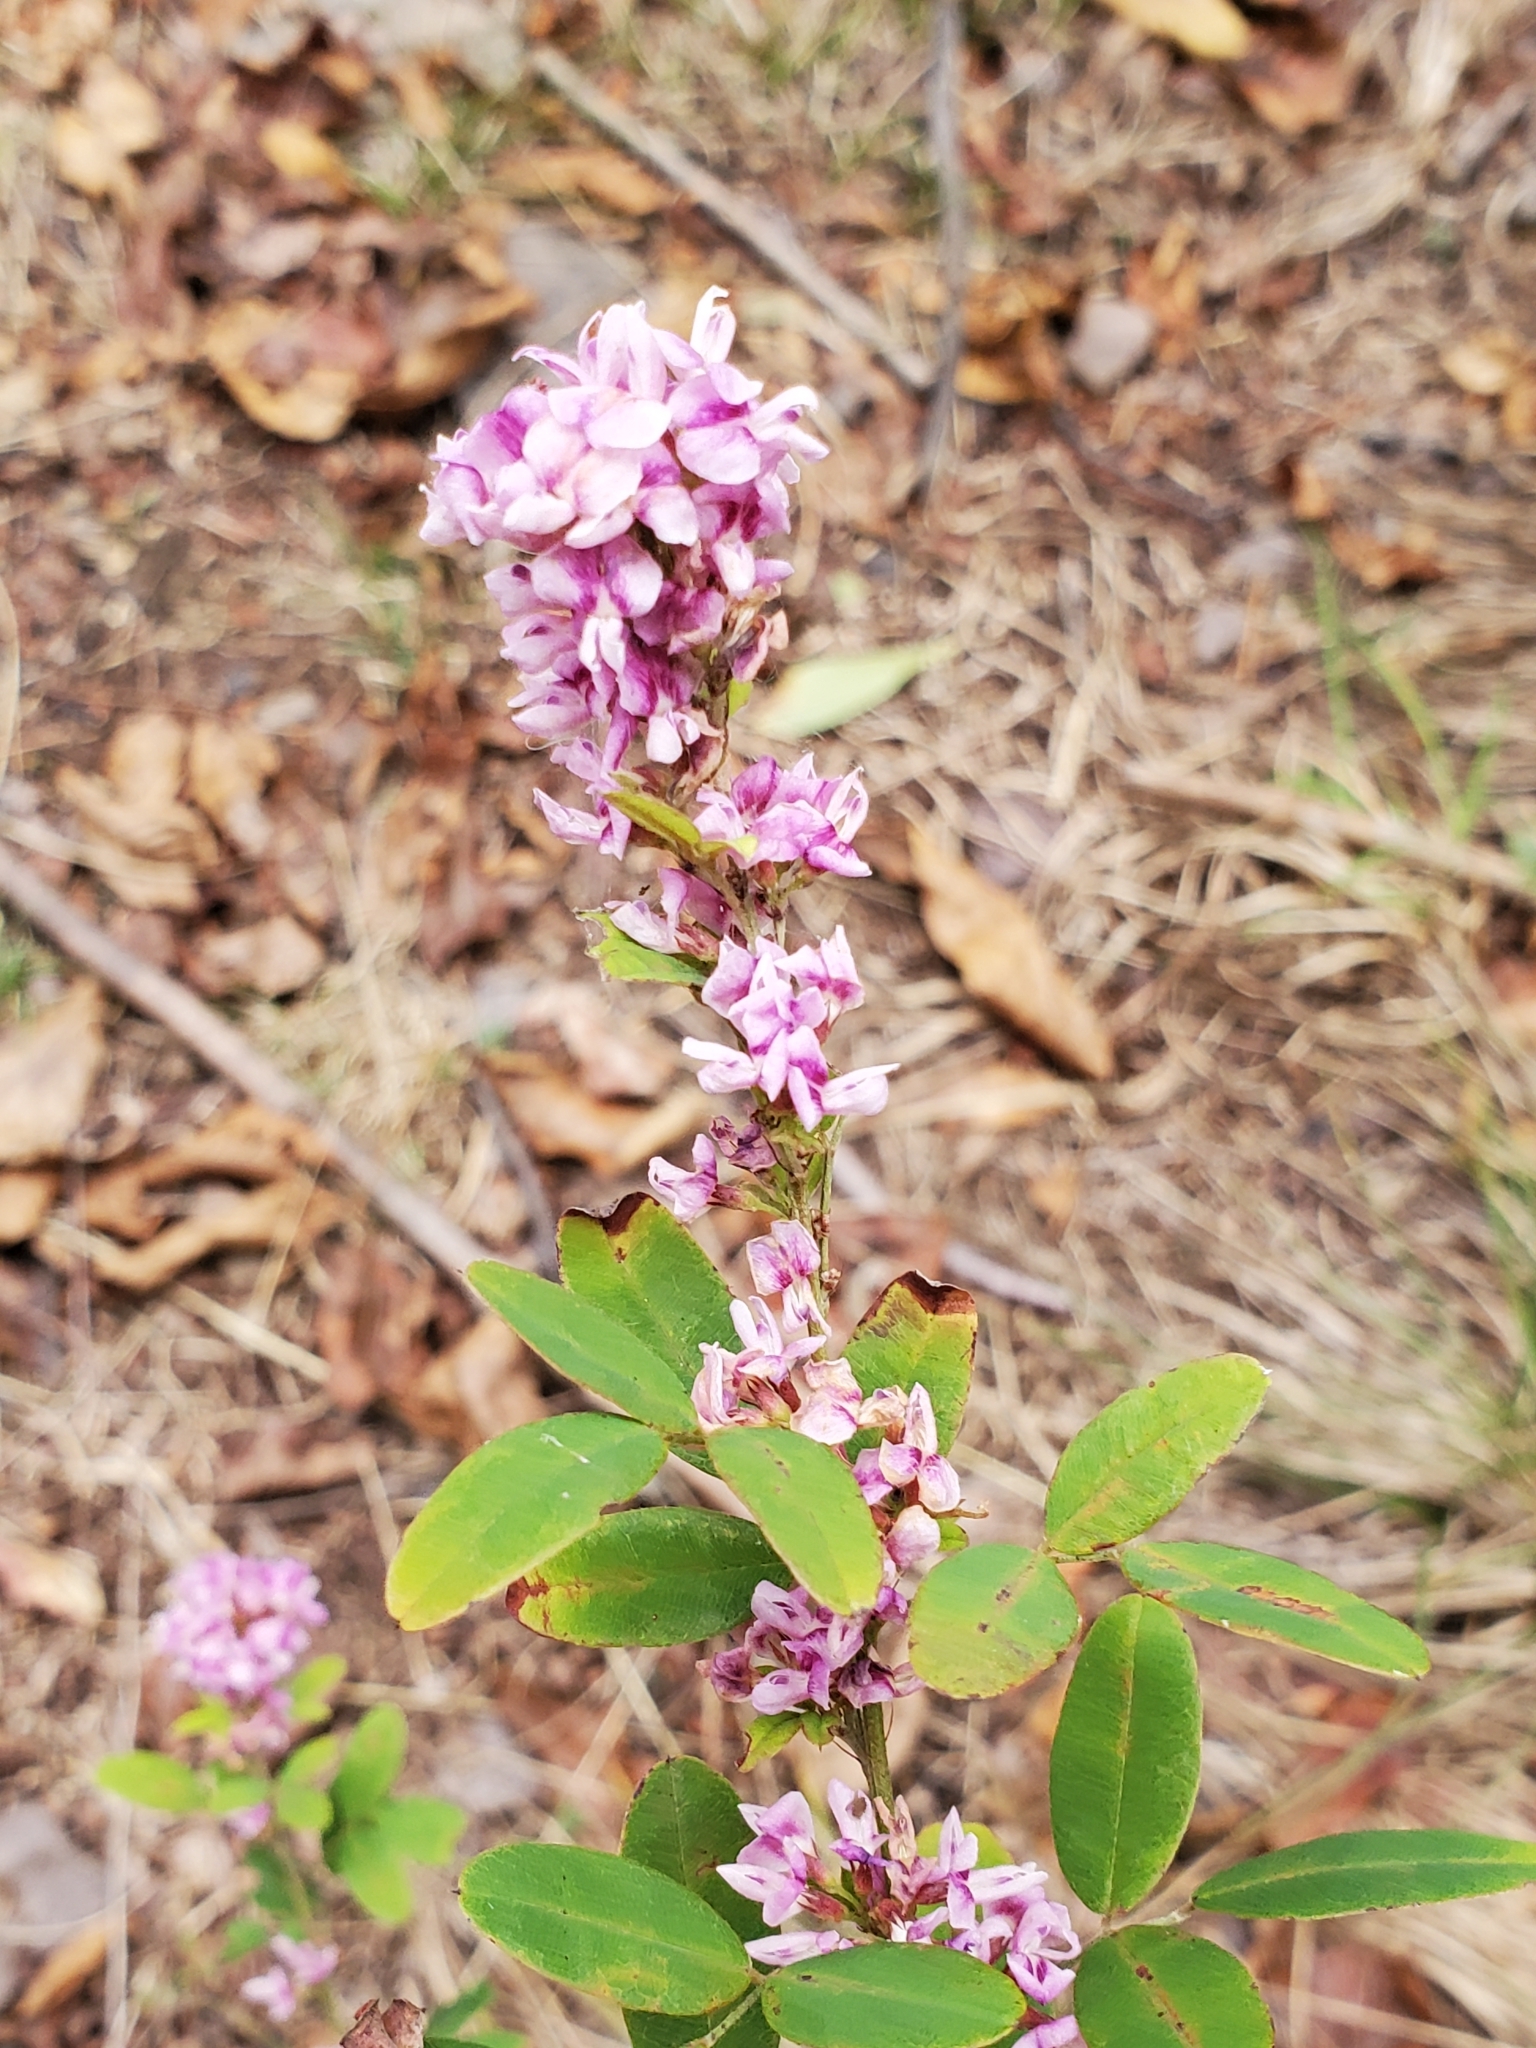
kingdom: Plantae
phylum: Tracheophyta
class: Magnoliopsida
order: Fabales
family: Fabaceae
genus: Lespedeza
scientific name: Lespedeza violacea
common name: Wand bush-clover
